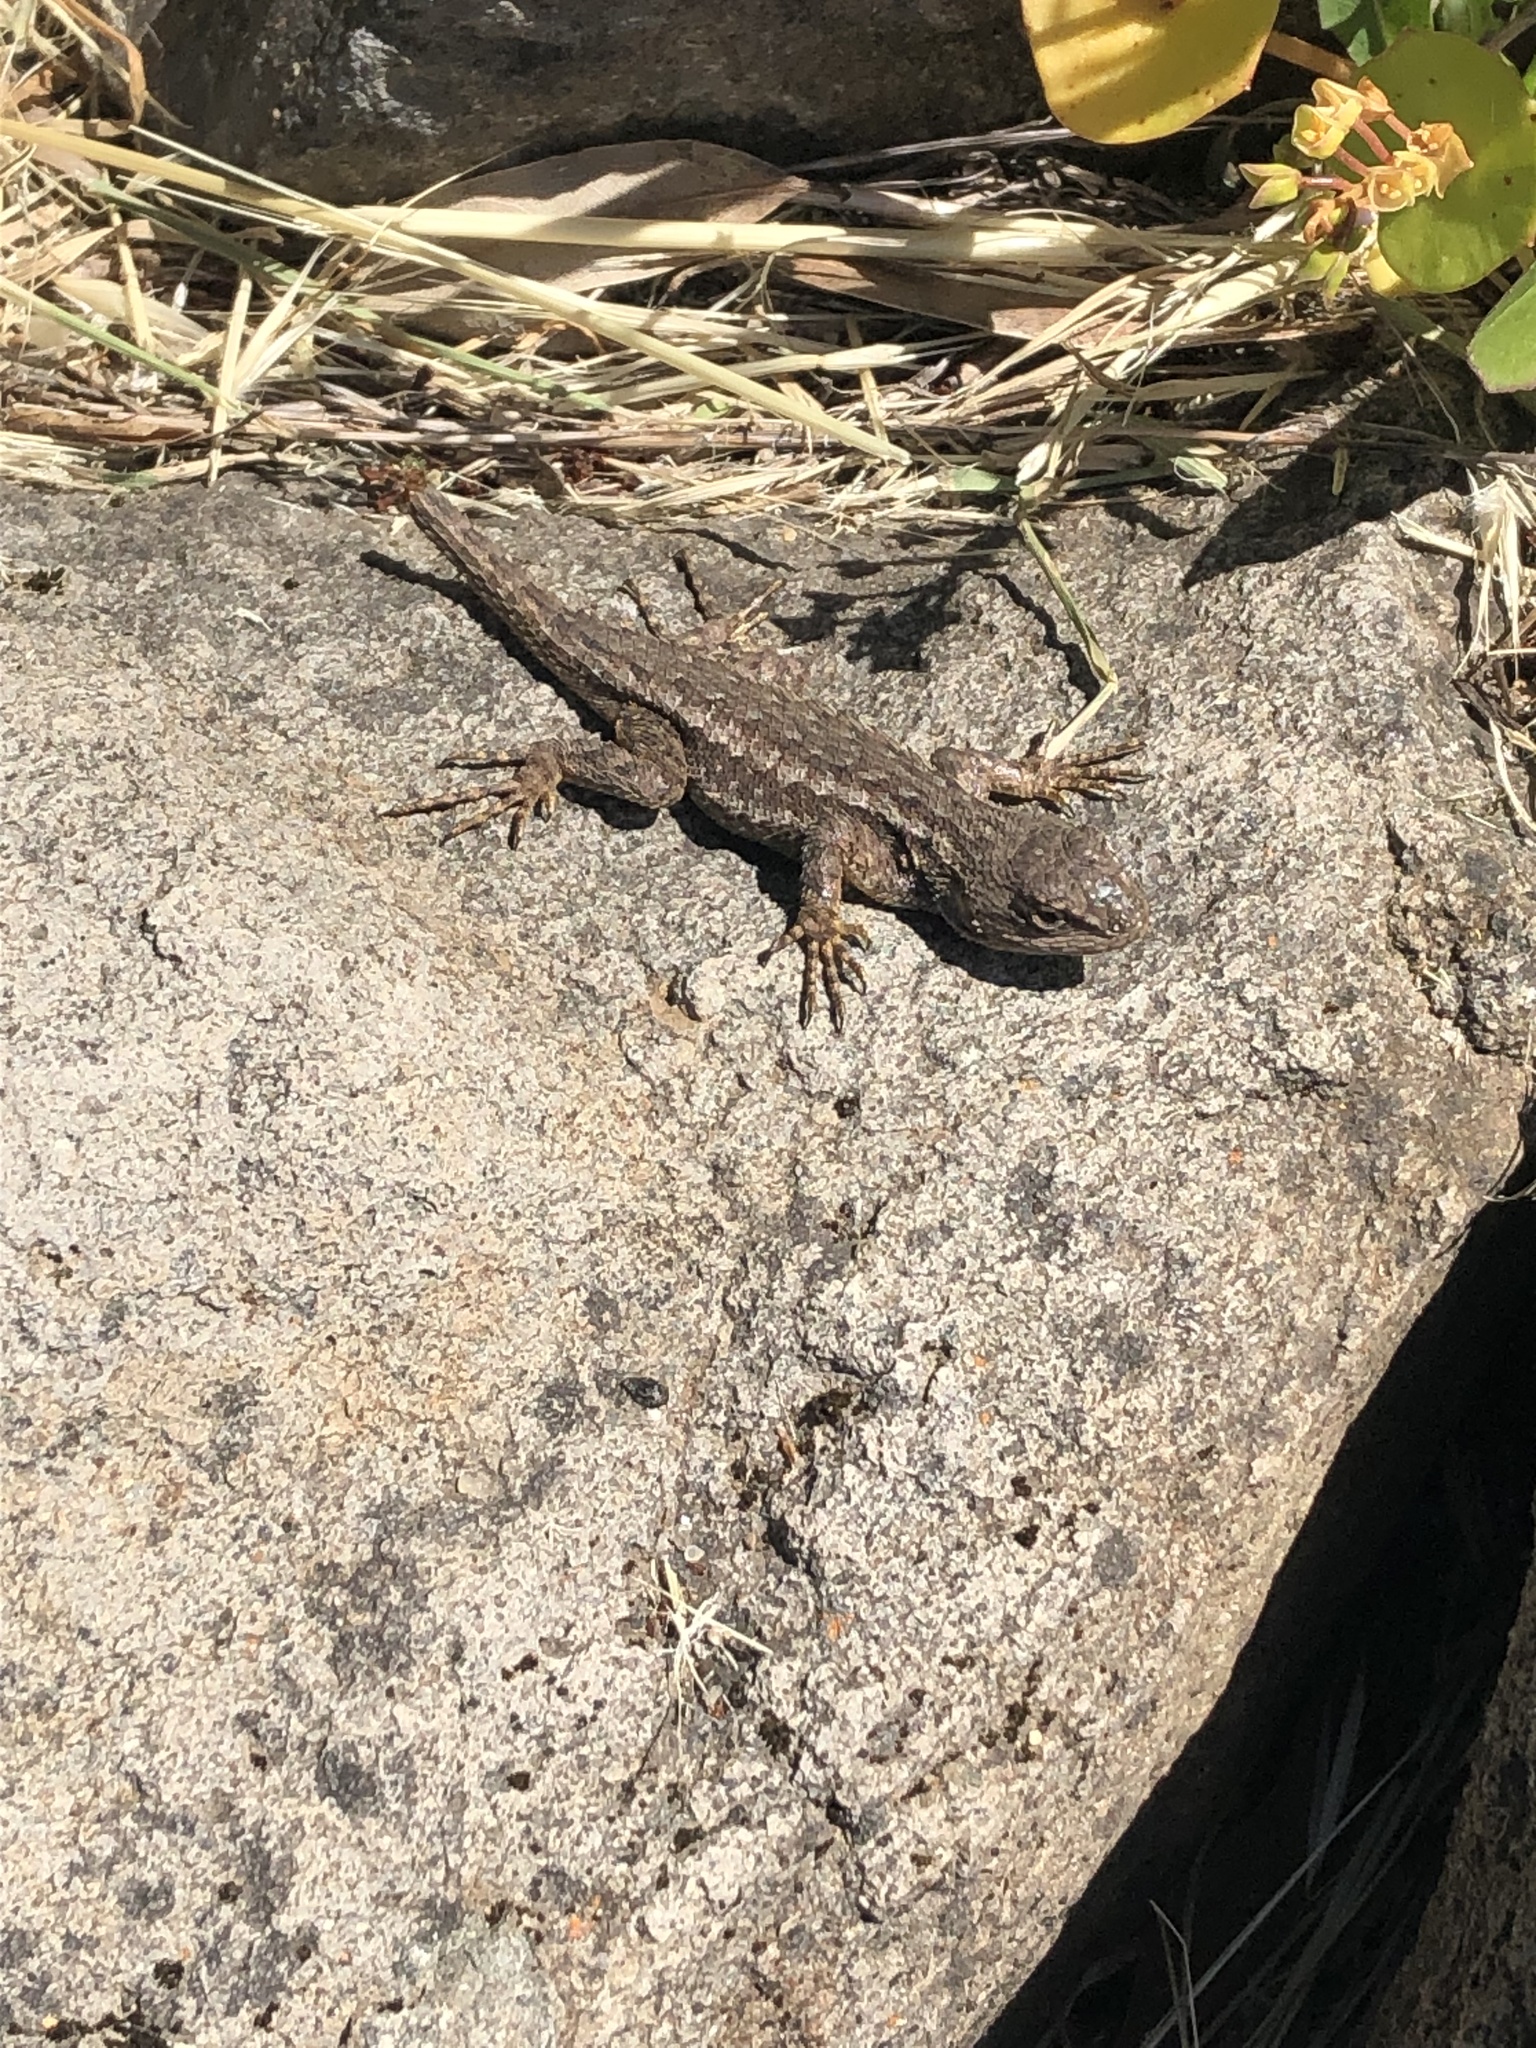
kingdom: Animalia
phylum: Chordata
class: Squamata
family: Phrynosomatidae
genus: Sceloporus
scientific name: Sceloporus occidentalis
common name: Western fence lizard
